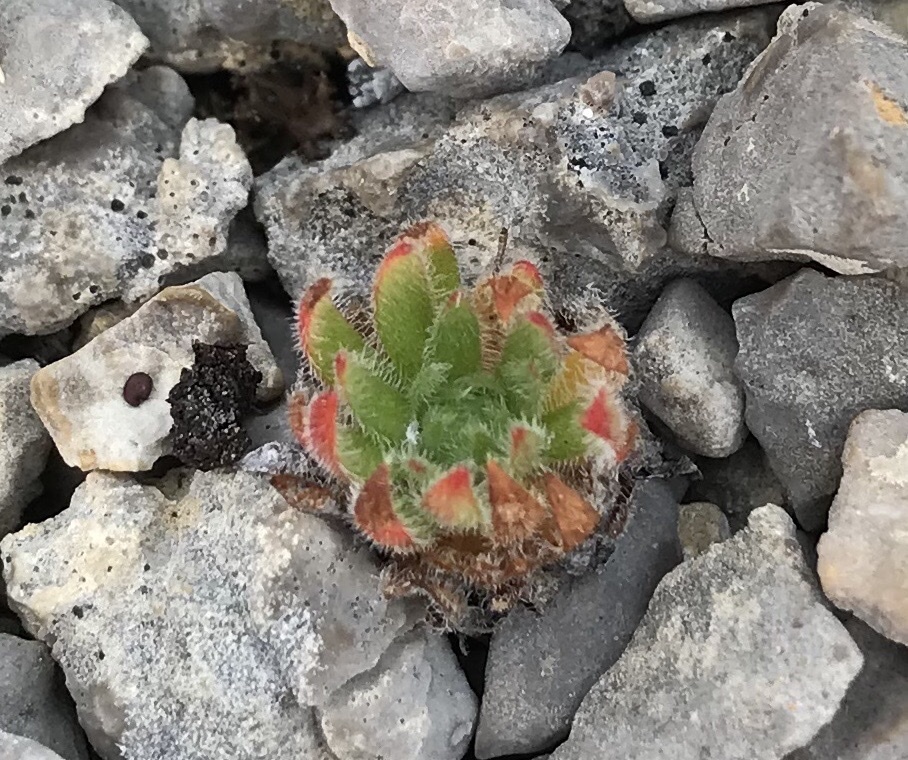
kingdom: Plantae
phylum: Tracheophyta
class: Magnoliopsida
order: Ericales
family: Primulaceae
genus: Androsace
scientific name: Androsace chamaejasme
